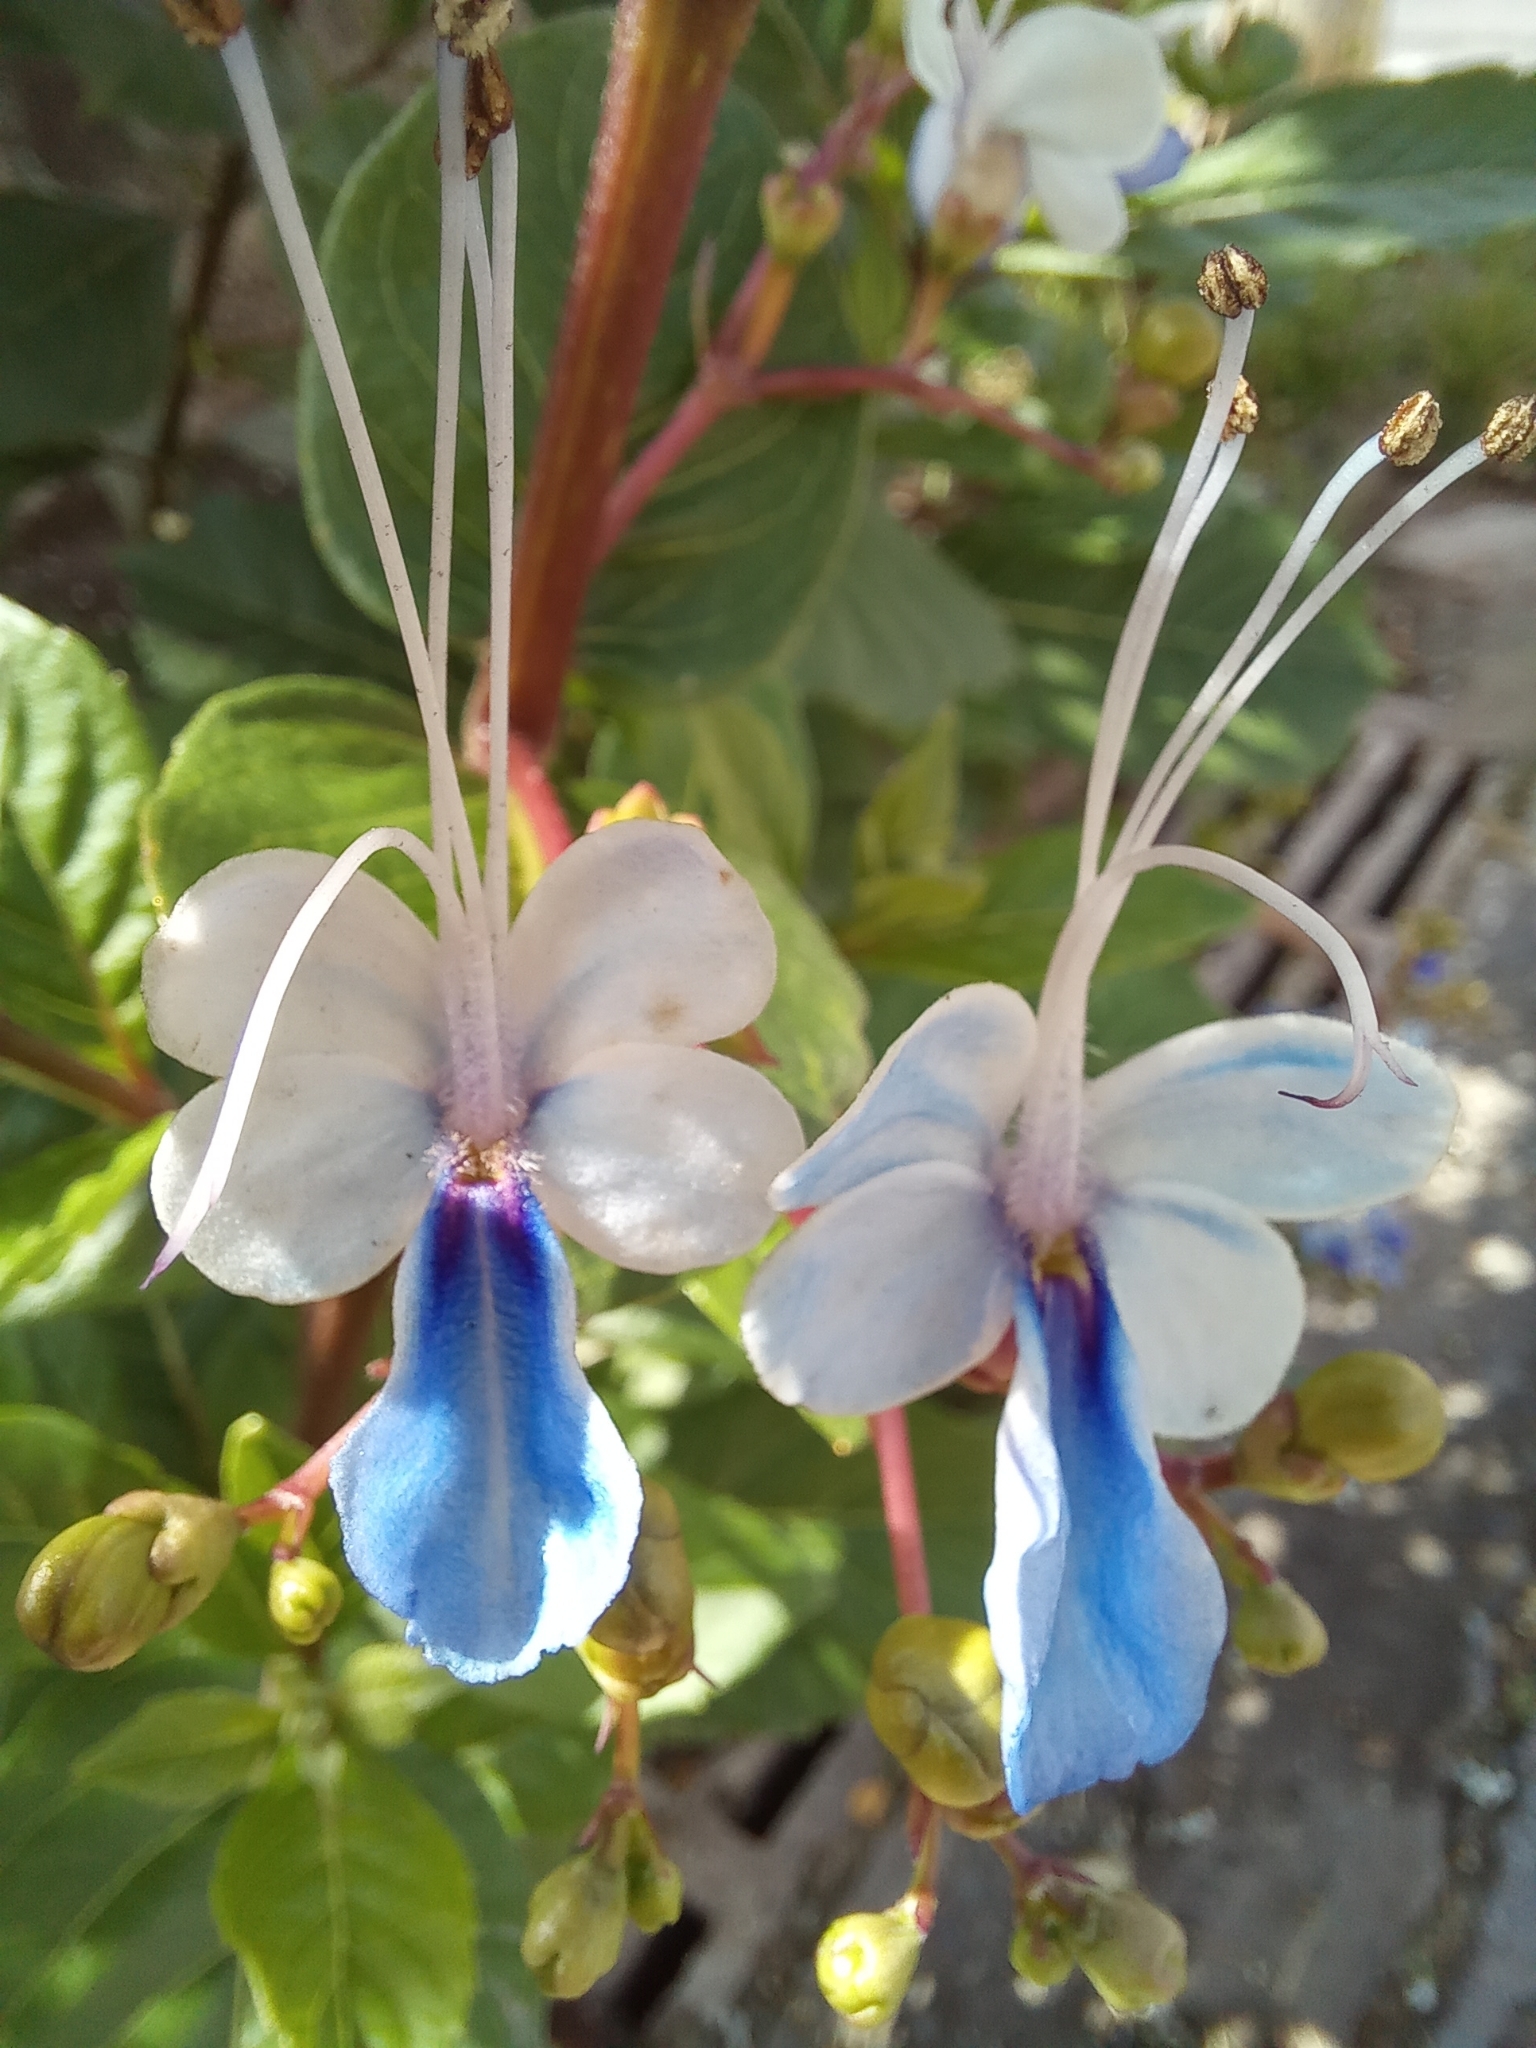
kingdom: Plantae
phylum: Tracheophyta
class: Magnoliopsida
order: Lamiales
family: Lamiaceae
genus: Rotheca
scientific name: Rotheca myricoides
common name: Cats-whiskers
